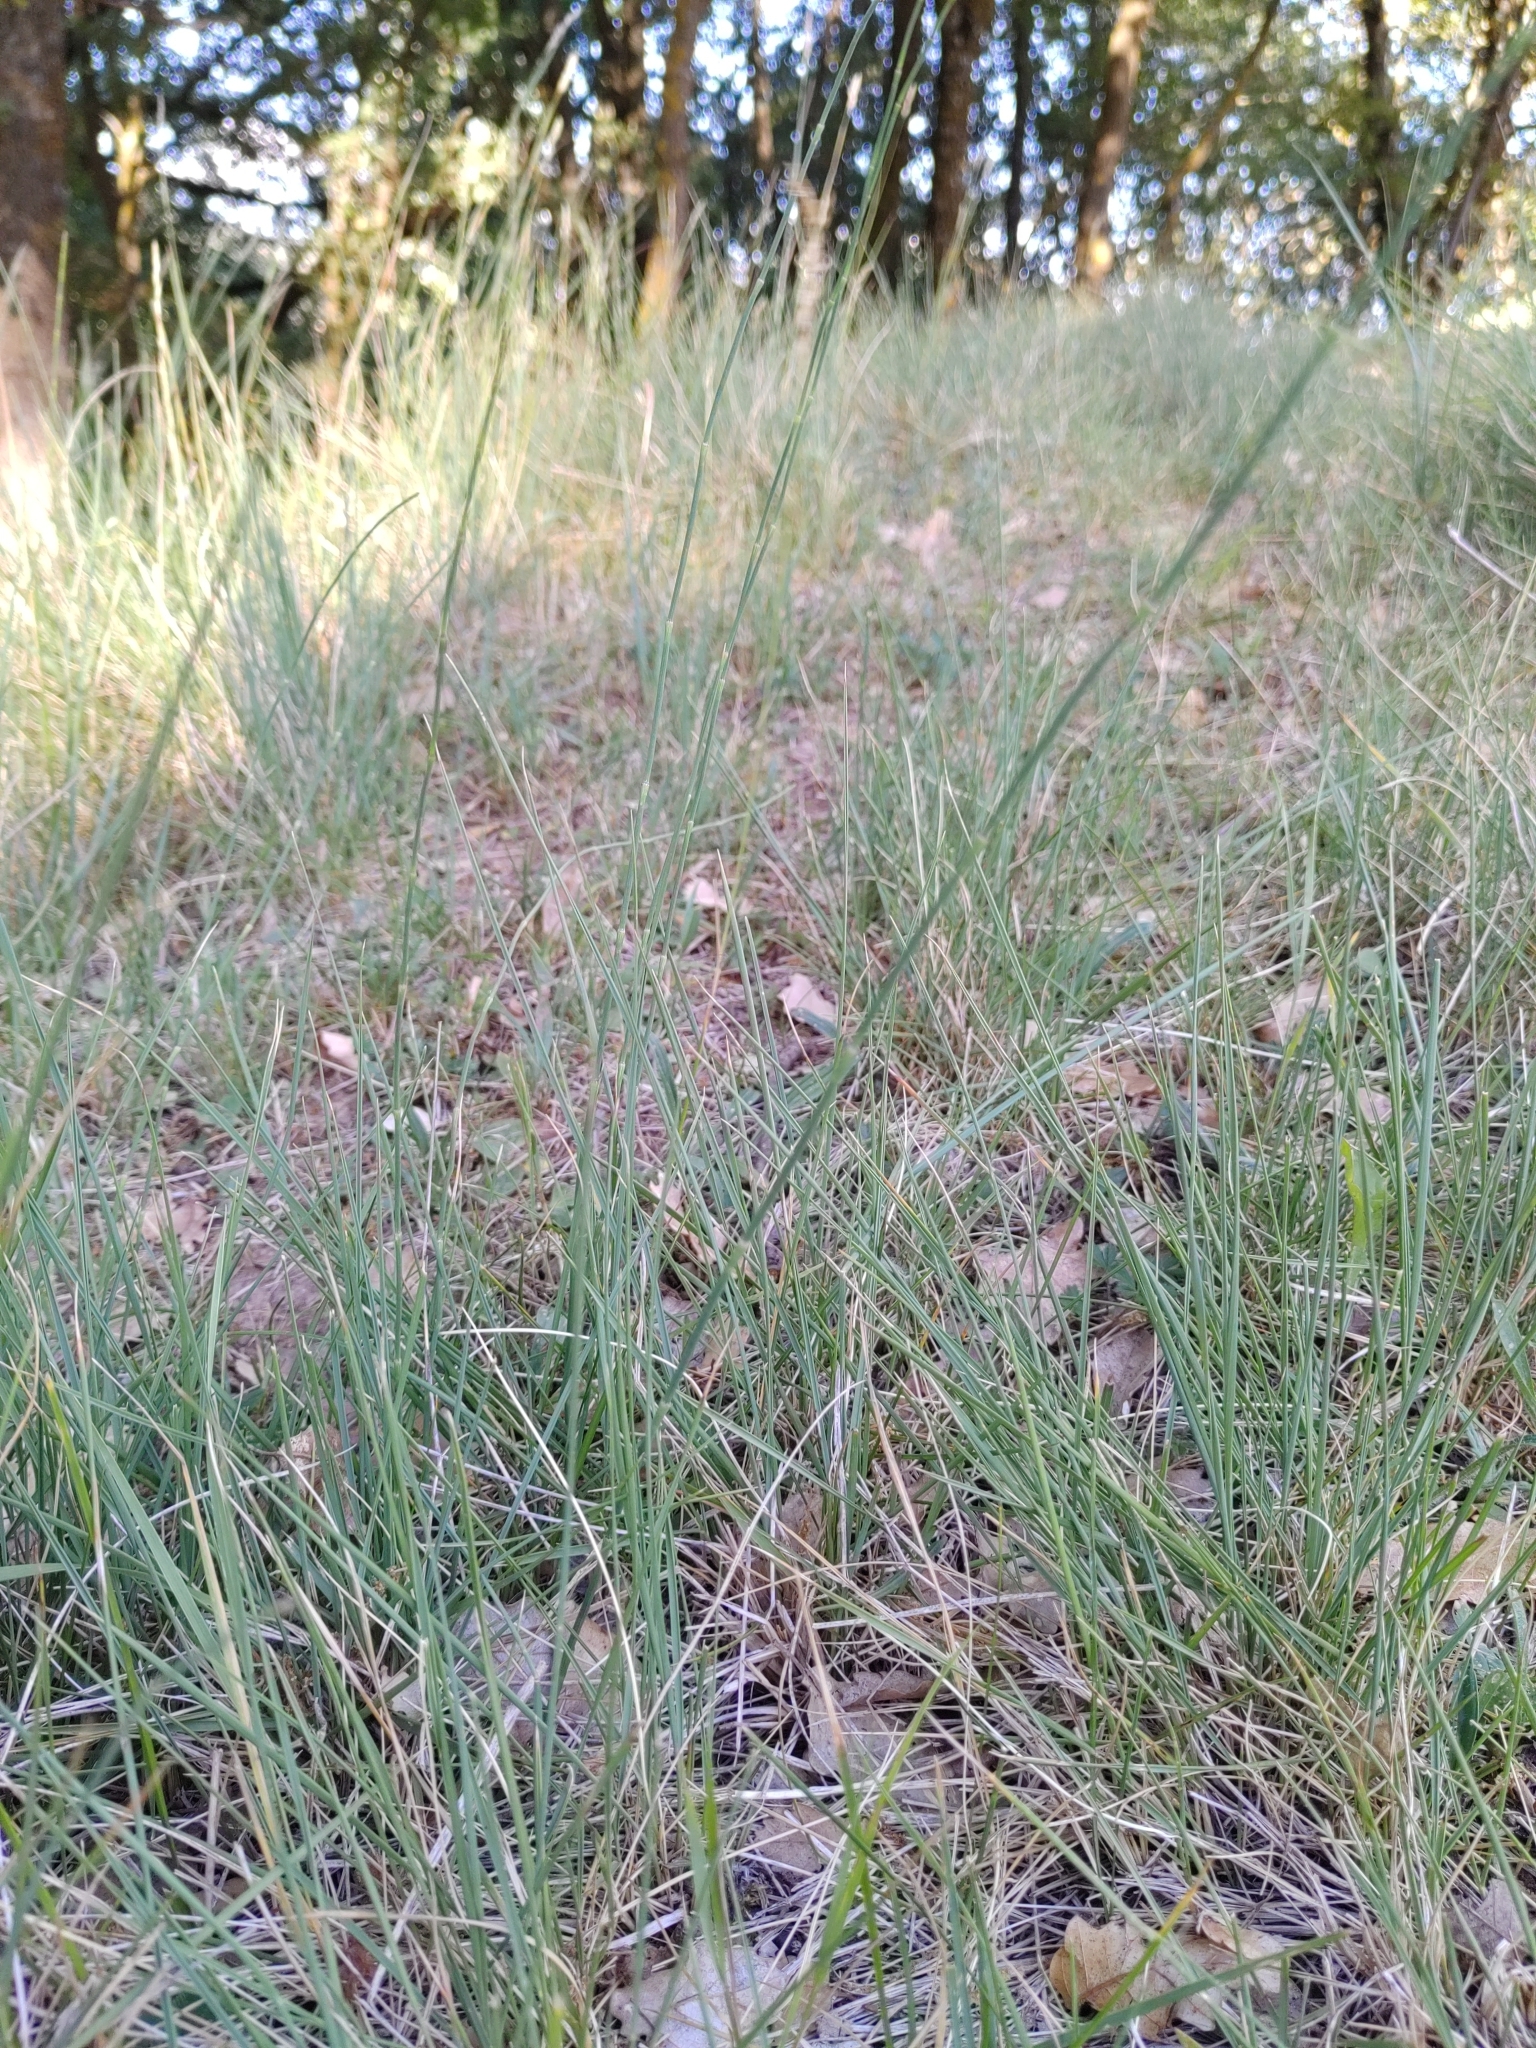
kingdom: Plantae
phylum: Tracheophyta
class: Polypodiopsida
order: Equisetales
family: Equisetaceae
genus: Equisetum
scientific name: Equisetum ramosissimum
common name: Branched horsetail
